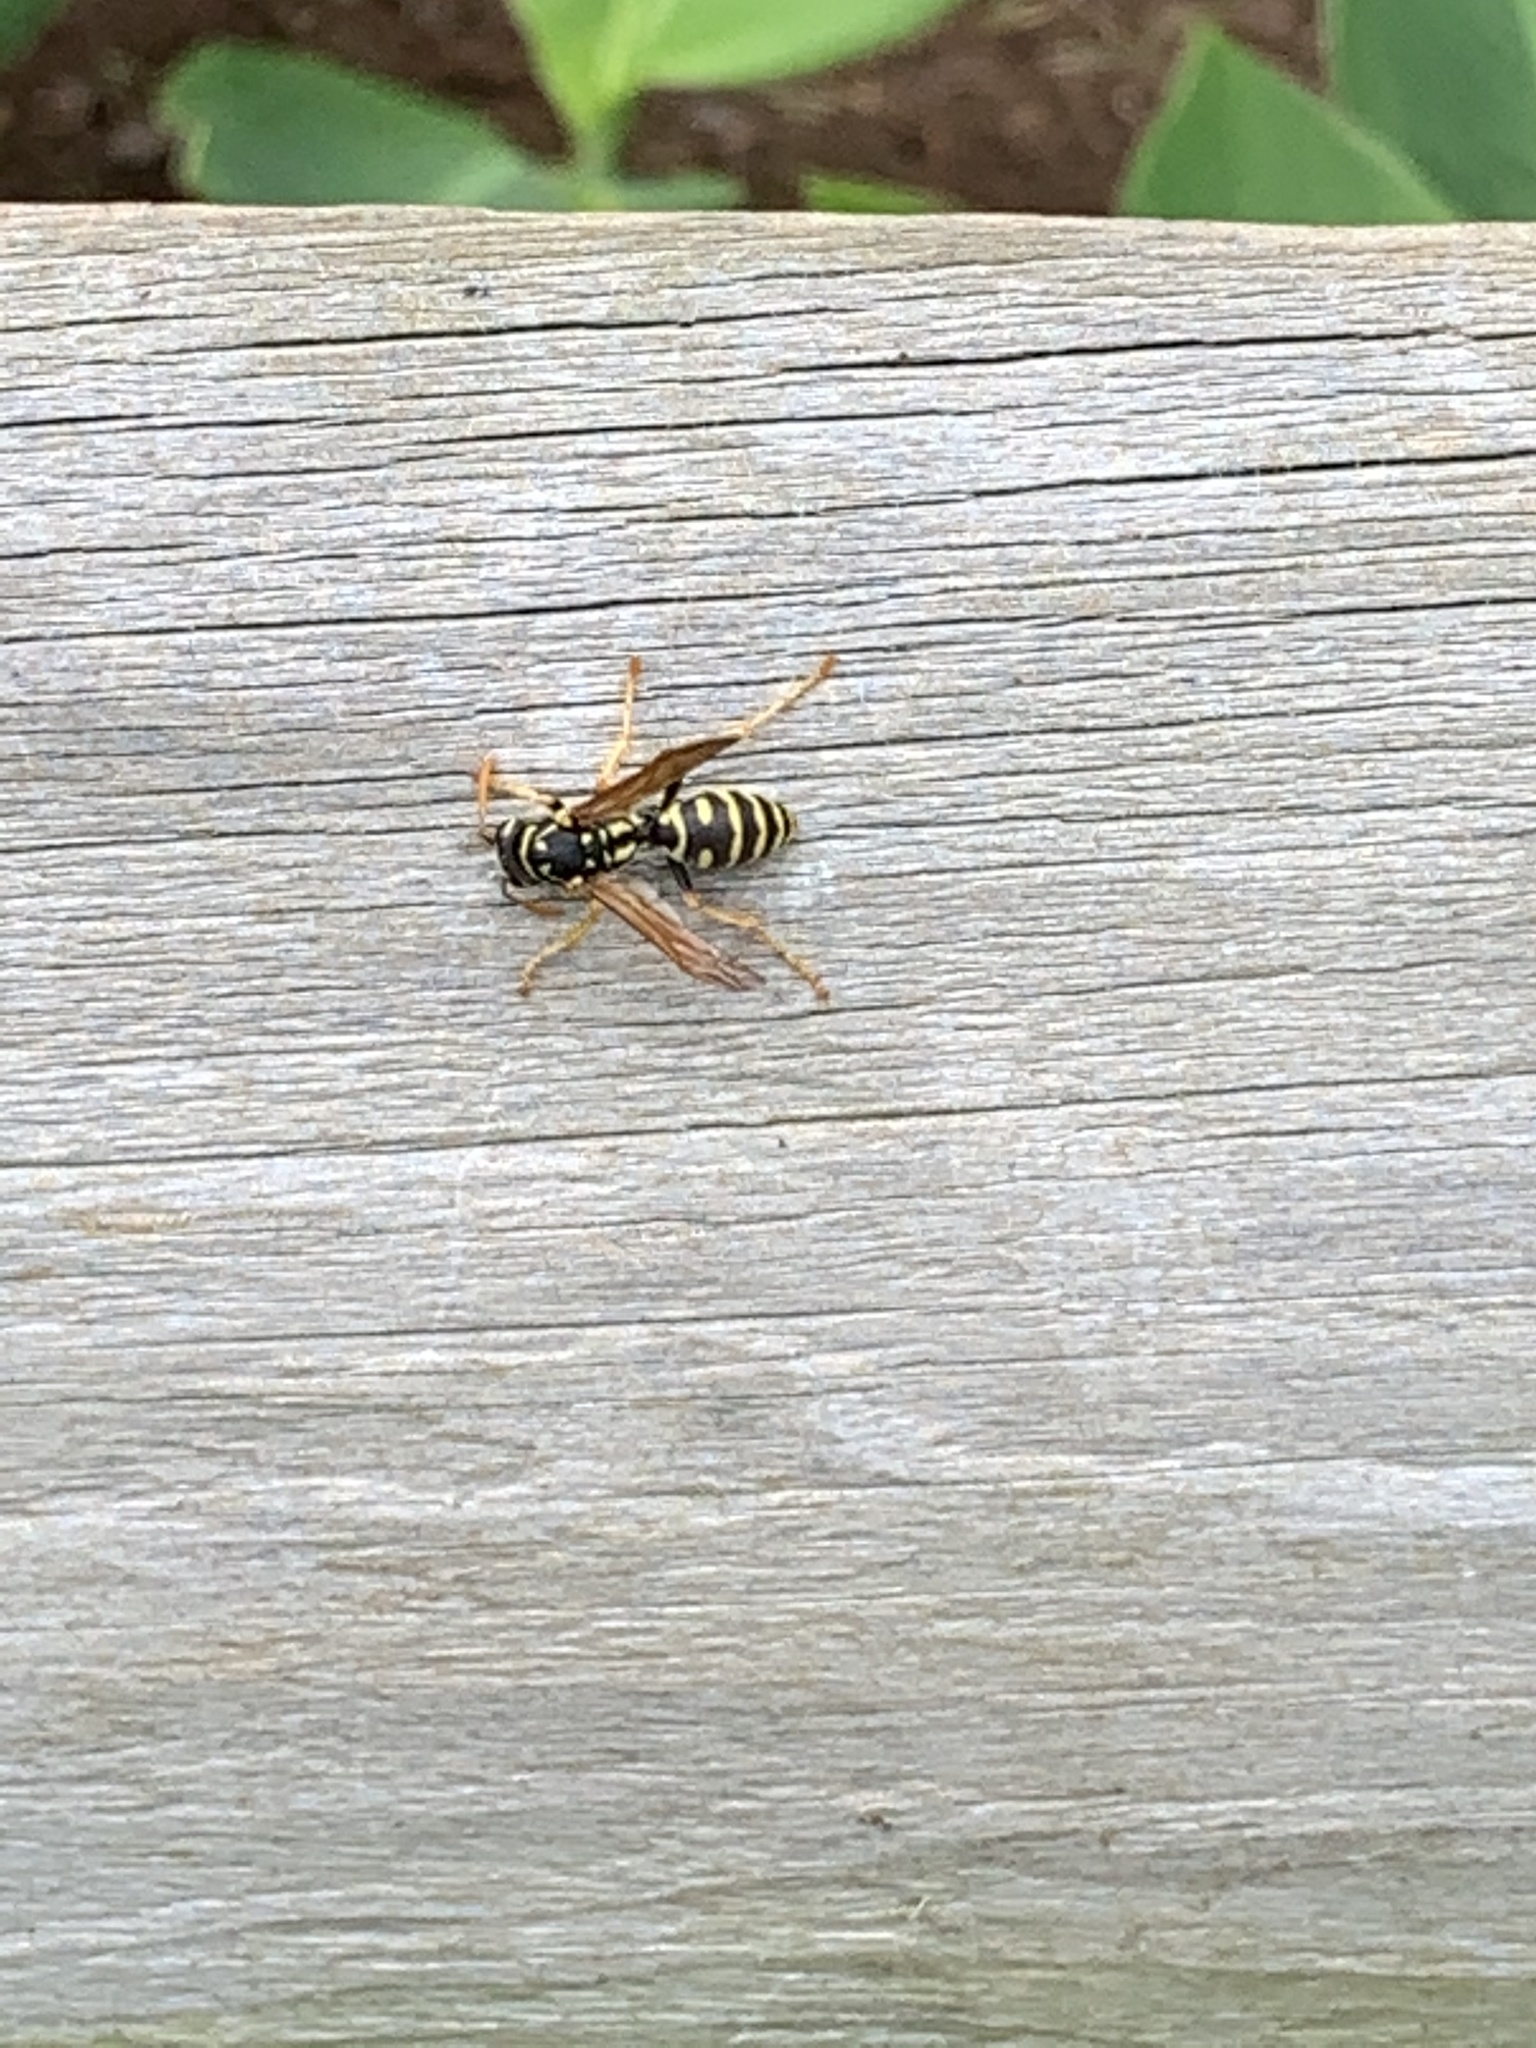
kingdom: Animalia
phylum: Arthropoda
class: Insecta
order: Hymenoptera
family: Eumenidae
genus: Polistes
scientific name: Polistes dominula
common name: Paper wasp
